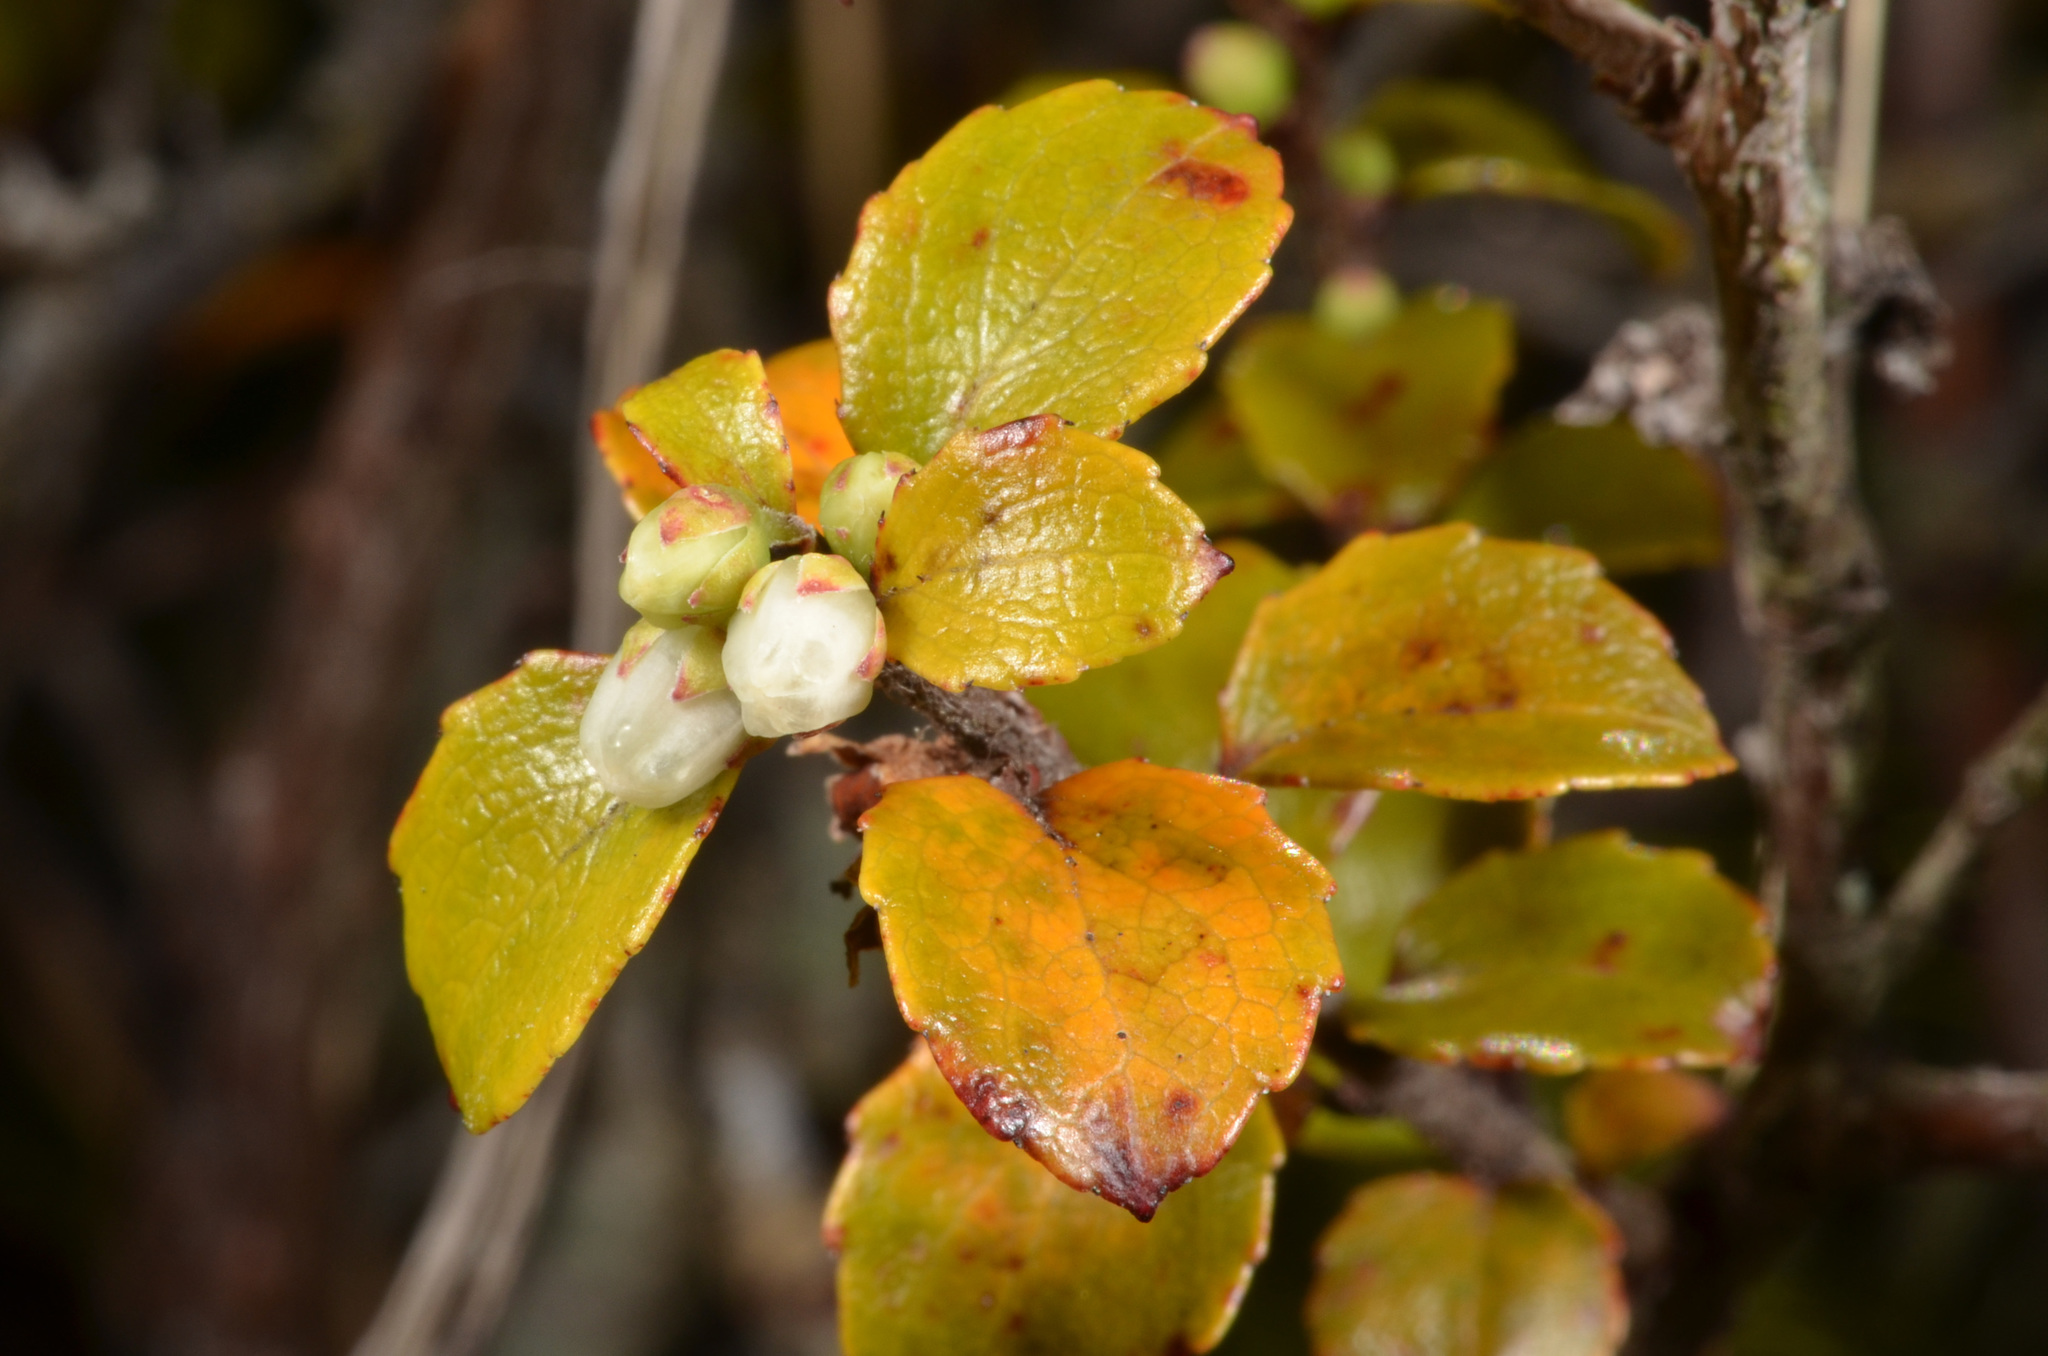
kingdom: Plantae
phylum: Tracheophyta
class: Magnoliopsida
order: Ericales
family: Ericaceae
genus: Gaultheria
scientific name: Gaultheria antipoda
